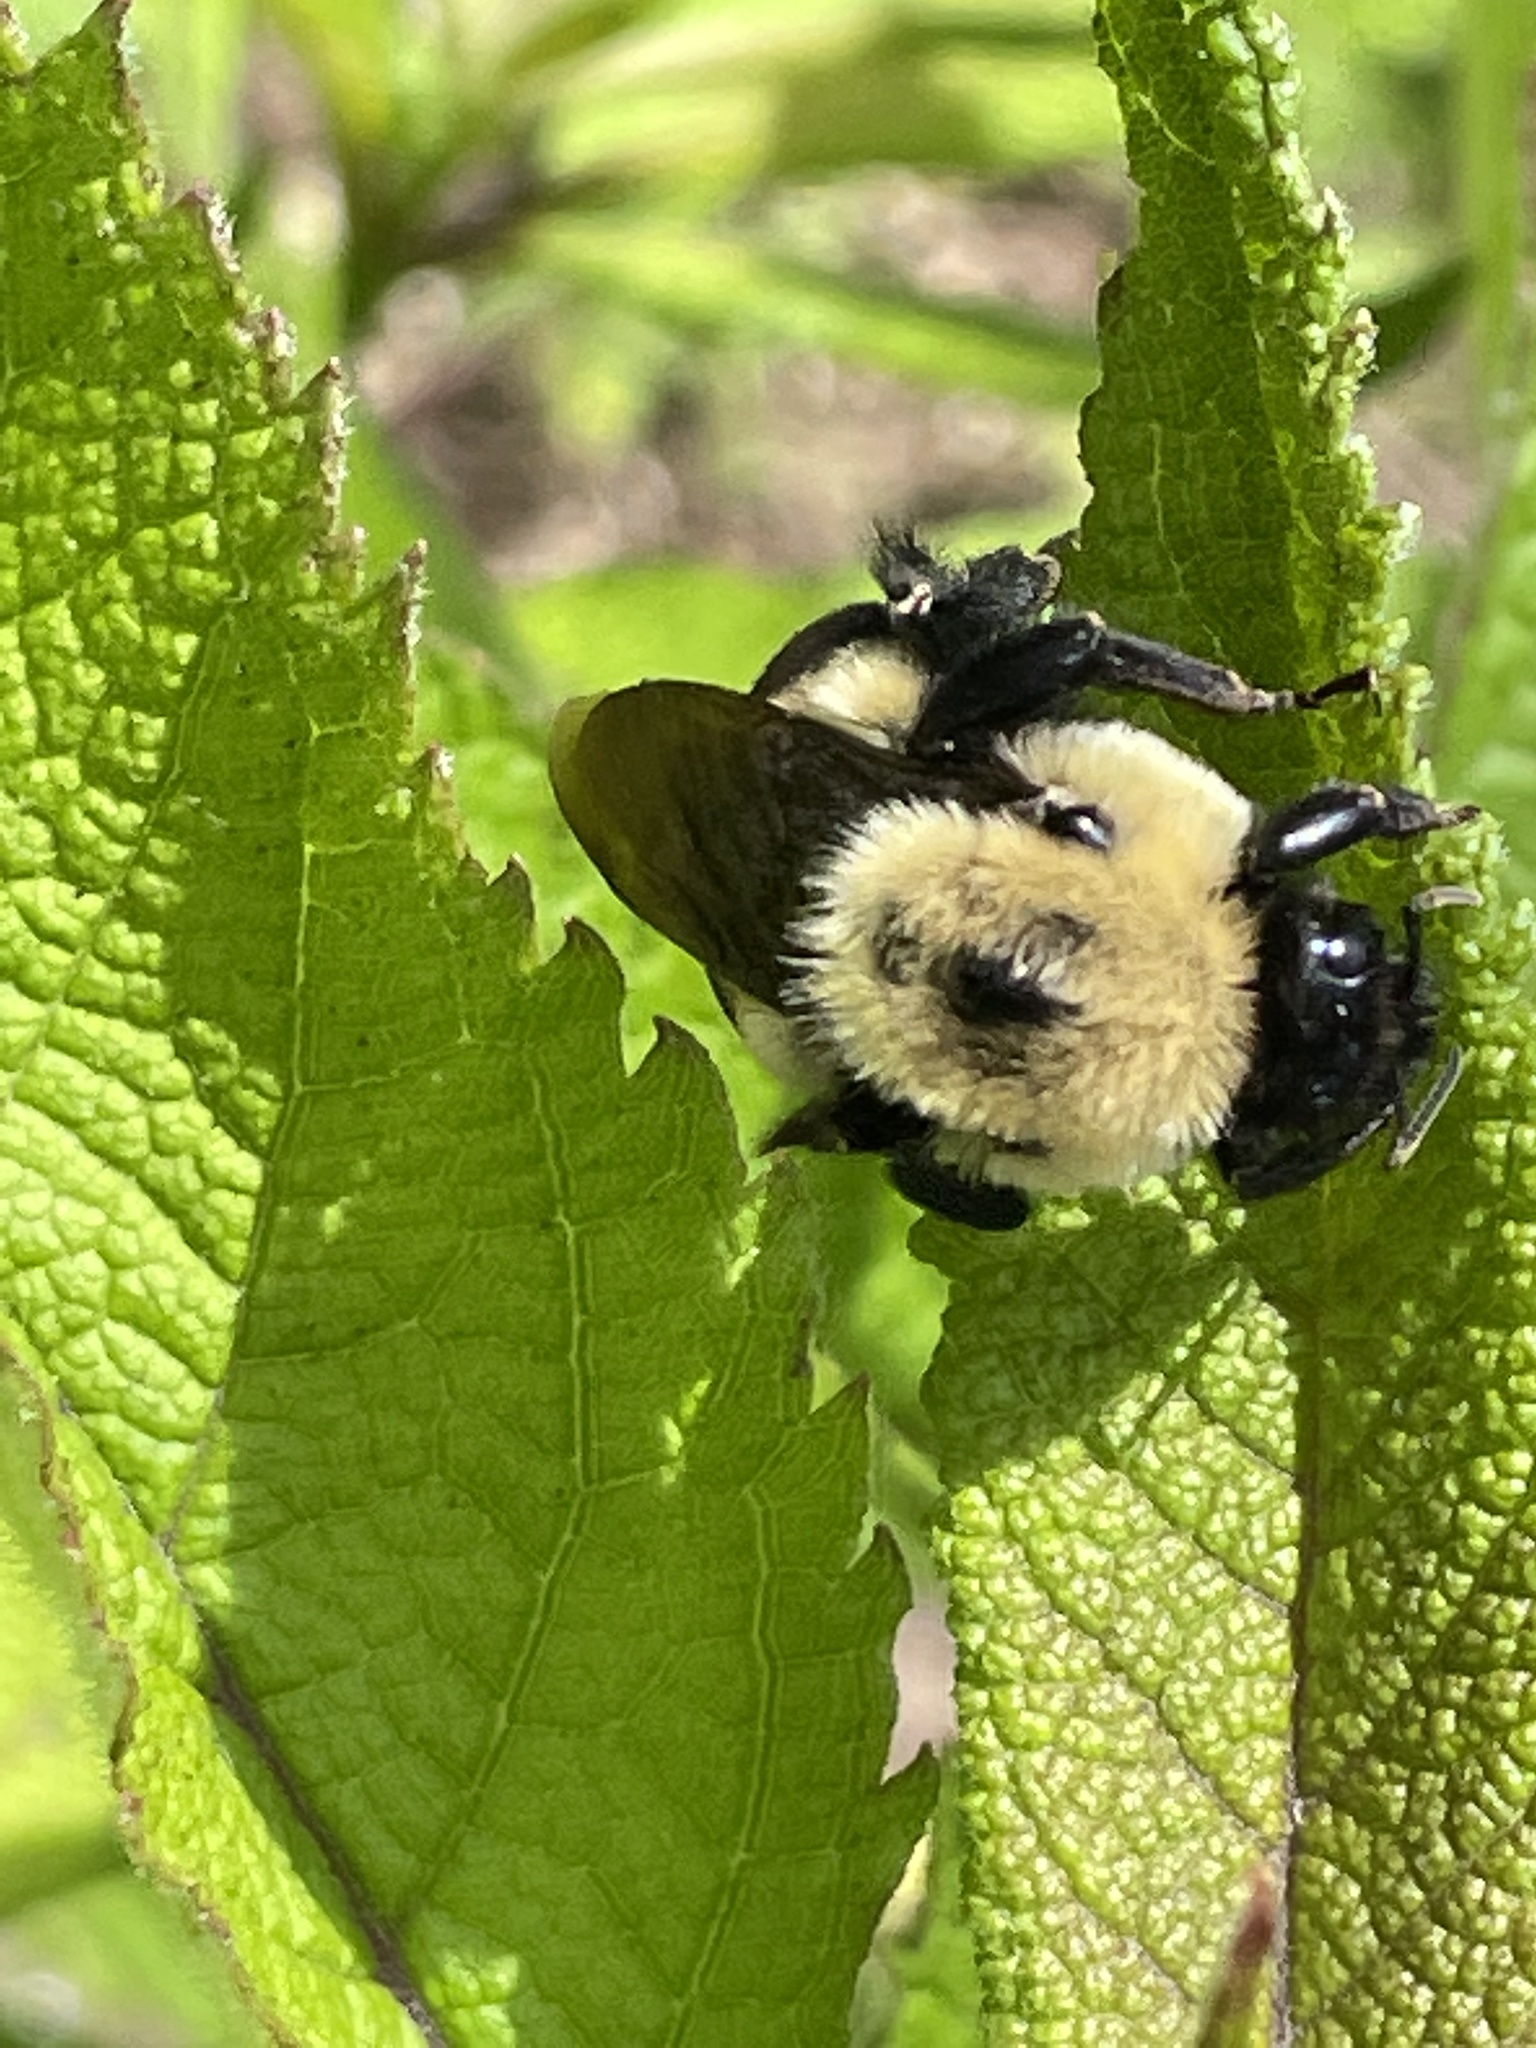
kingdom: Animalia
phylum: Arthropoda
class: Insecta
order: Hymenoptera
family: Apidae
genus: Bombus
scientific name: Bombus griseocollis
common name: Brown-belted bumble bee
